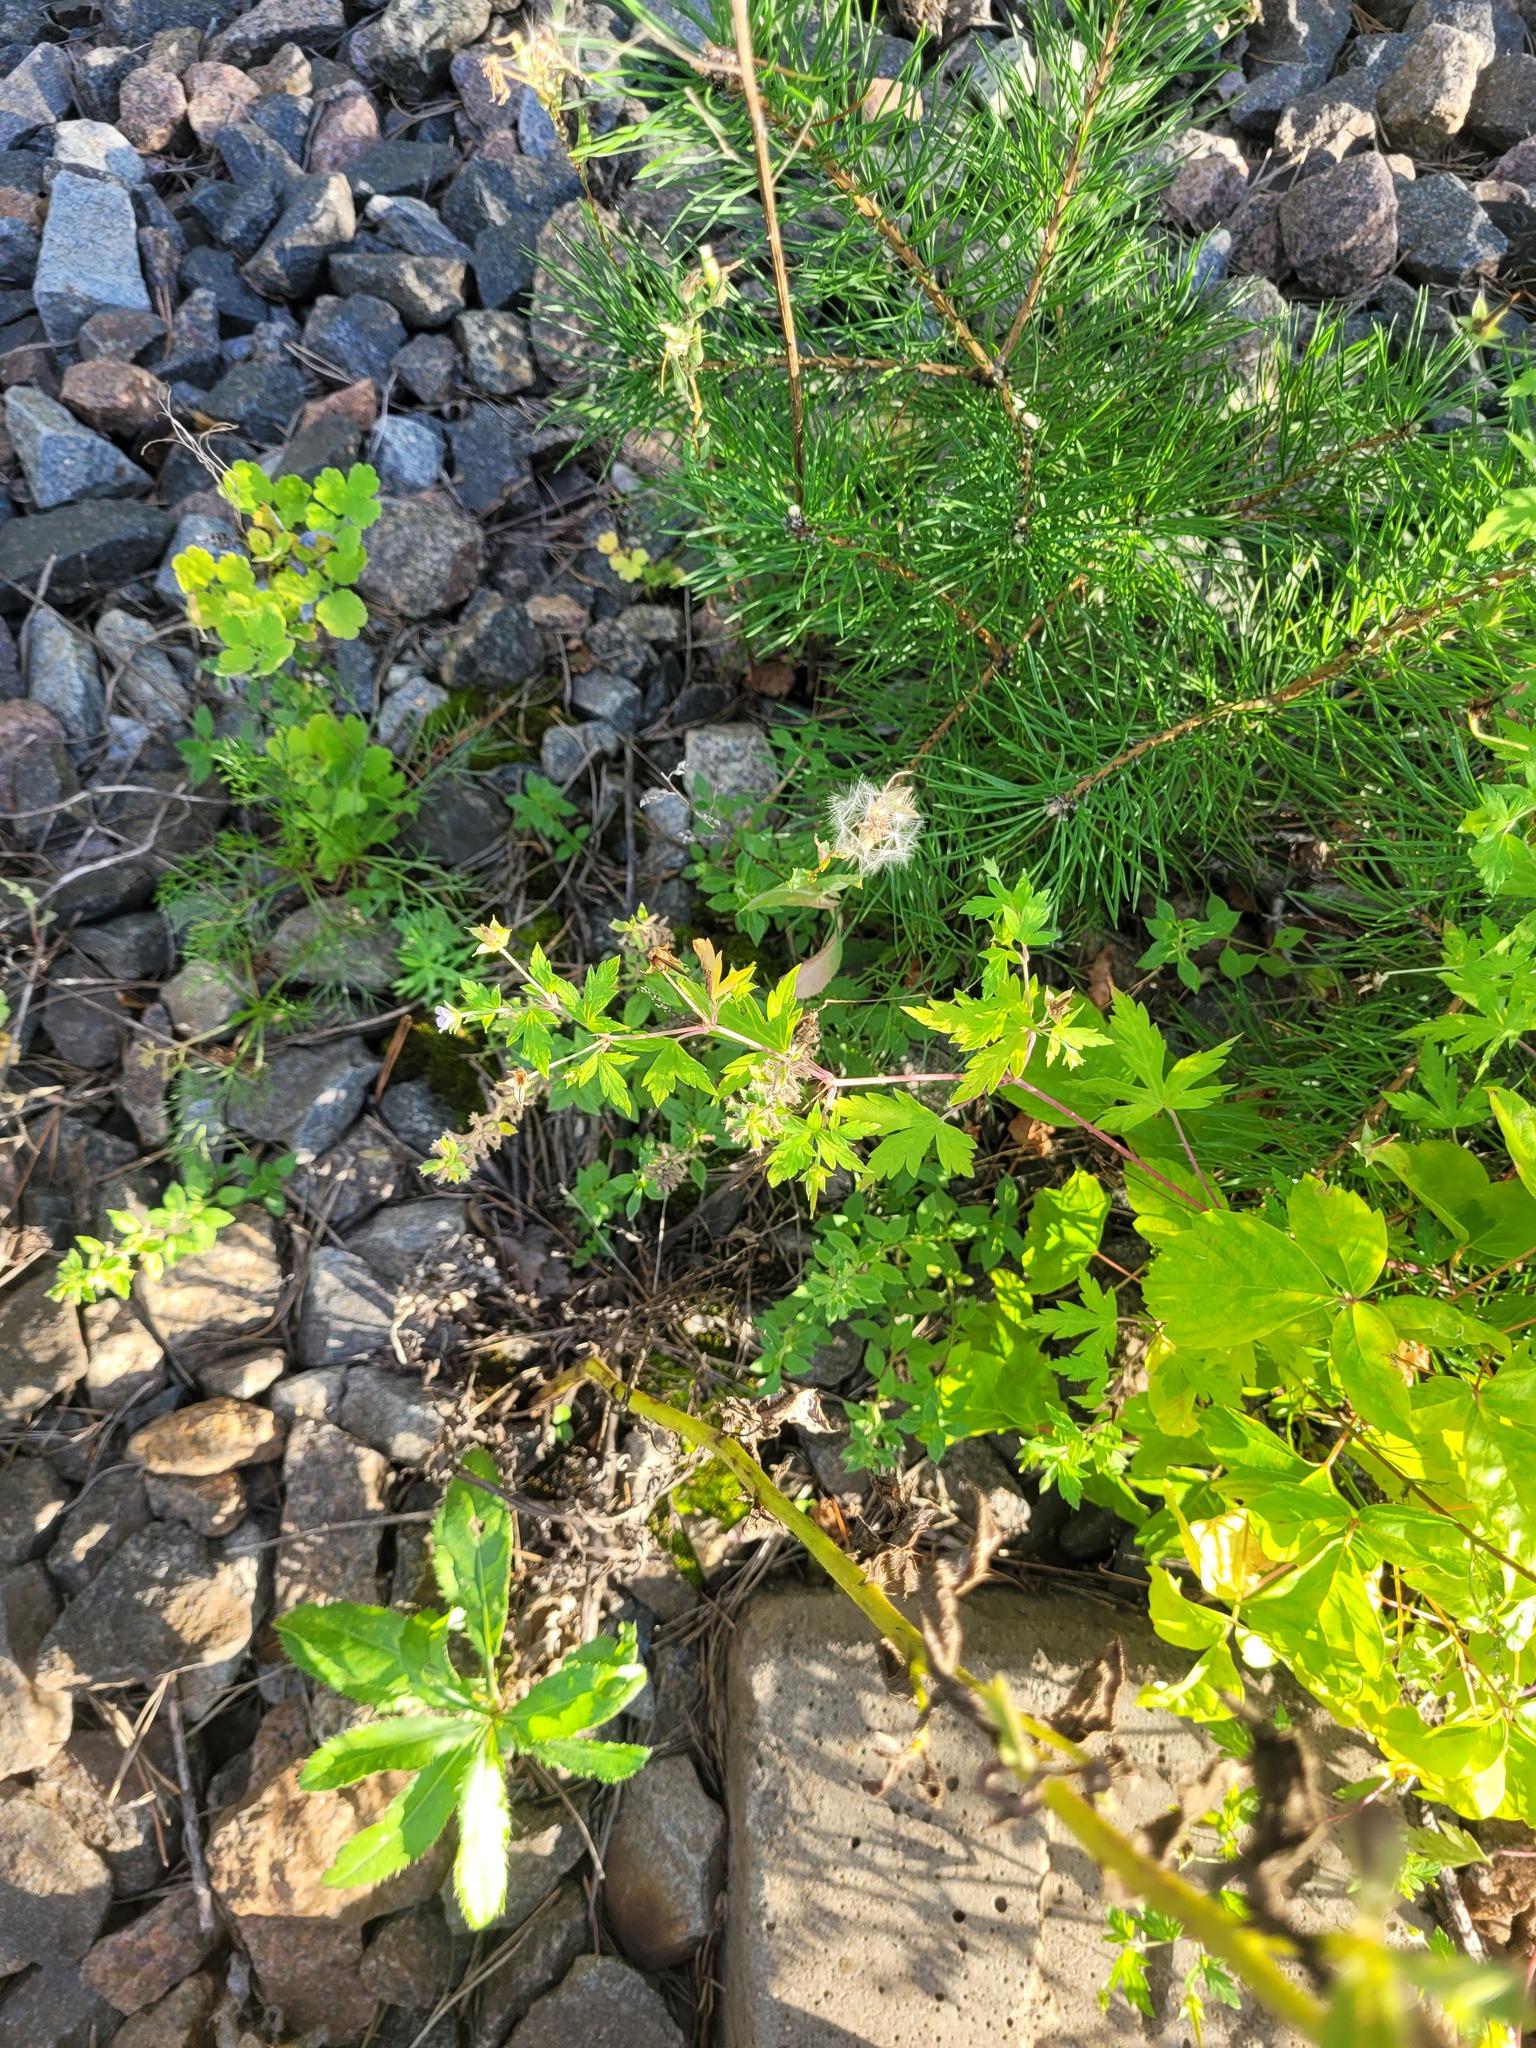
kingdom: Plantae
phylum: Tracheophyta
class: Magnoliopsida
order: Geraniales
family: Geraniaceae
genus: Geranium
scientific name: Geranium sibiricum
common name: Siberian crane's-bill
